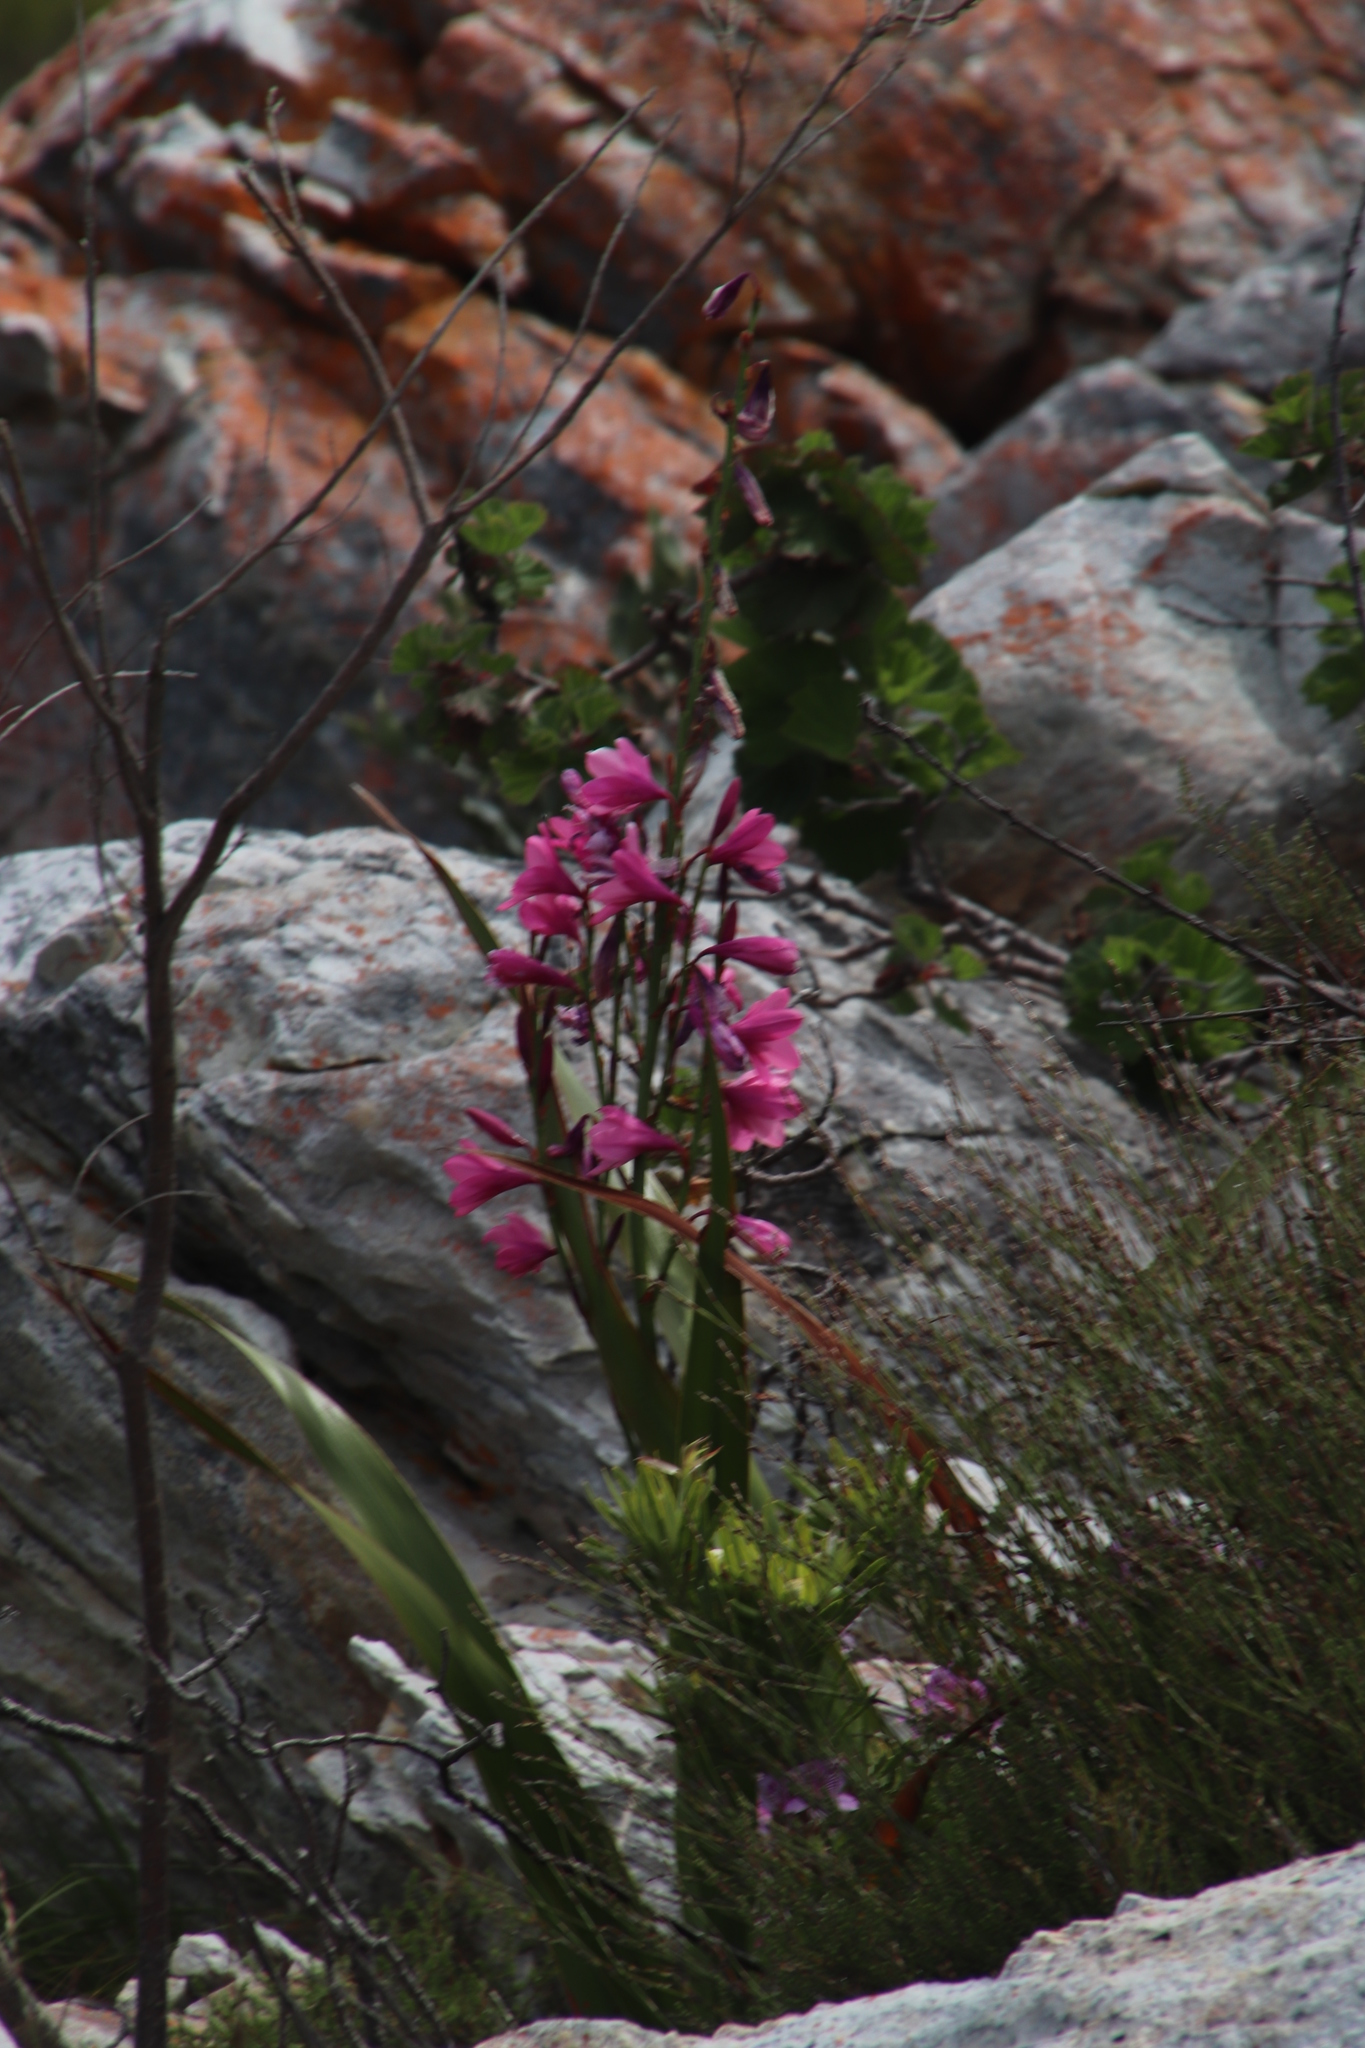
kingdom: Plantae
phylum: Tracheophyta
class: Liliopsida
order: Asparagales
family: Iridaceae
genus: Watsonia
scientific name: Watsonia borbonica
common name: Bugle-lily
